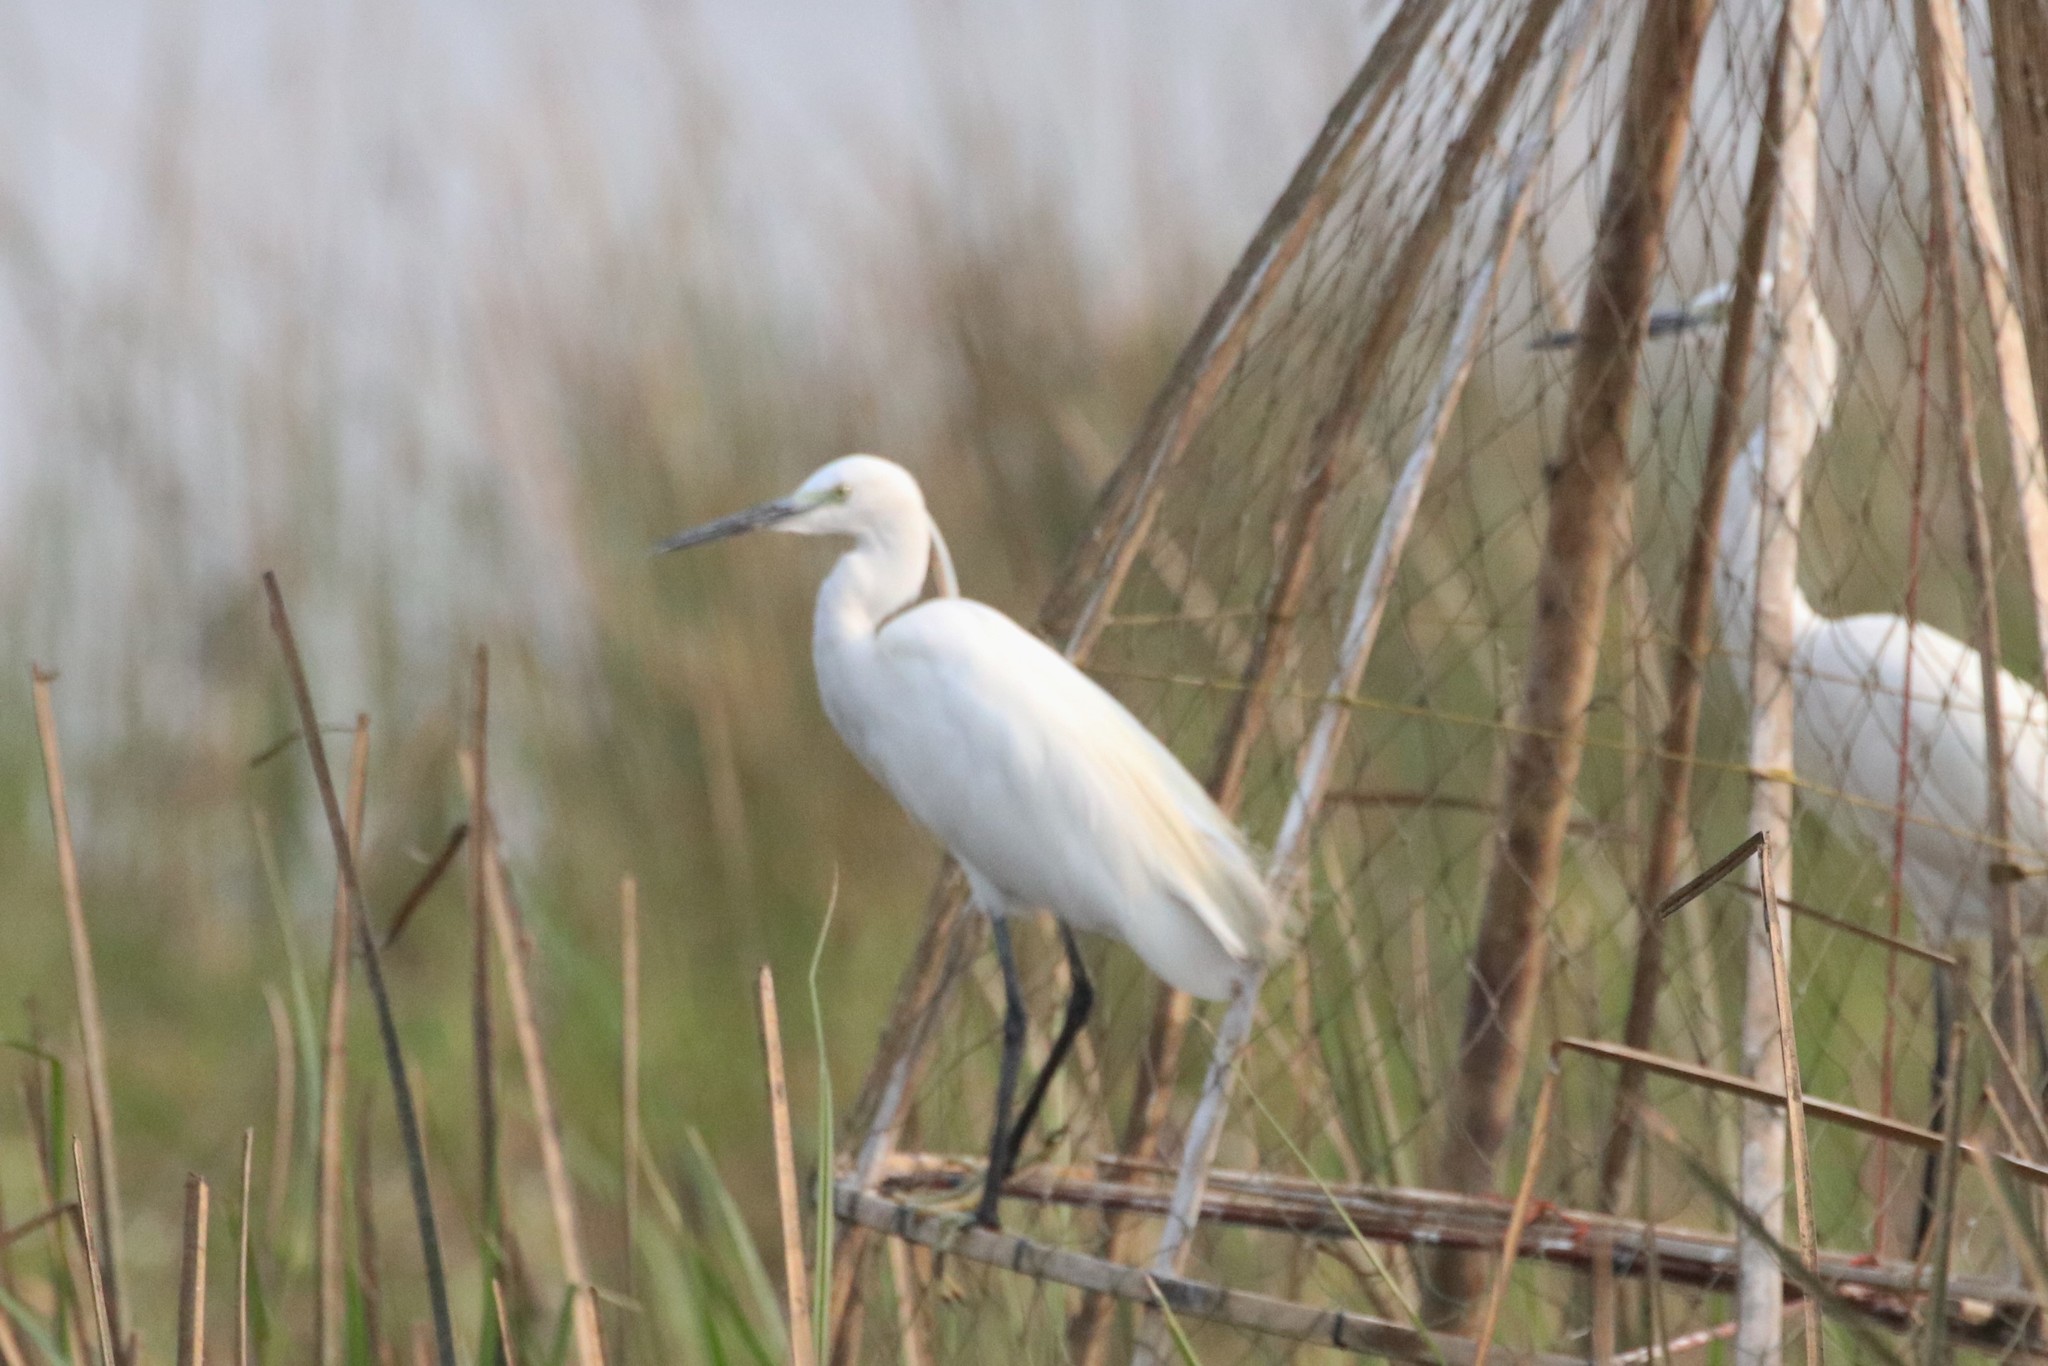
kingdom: Animalia
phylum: Chordata
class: Aves
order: Pelecaniformes
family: Ardeidae
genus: Egretta
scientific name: Egretta garzetta
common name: Little egret
